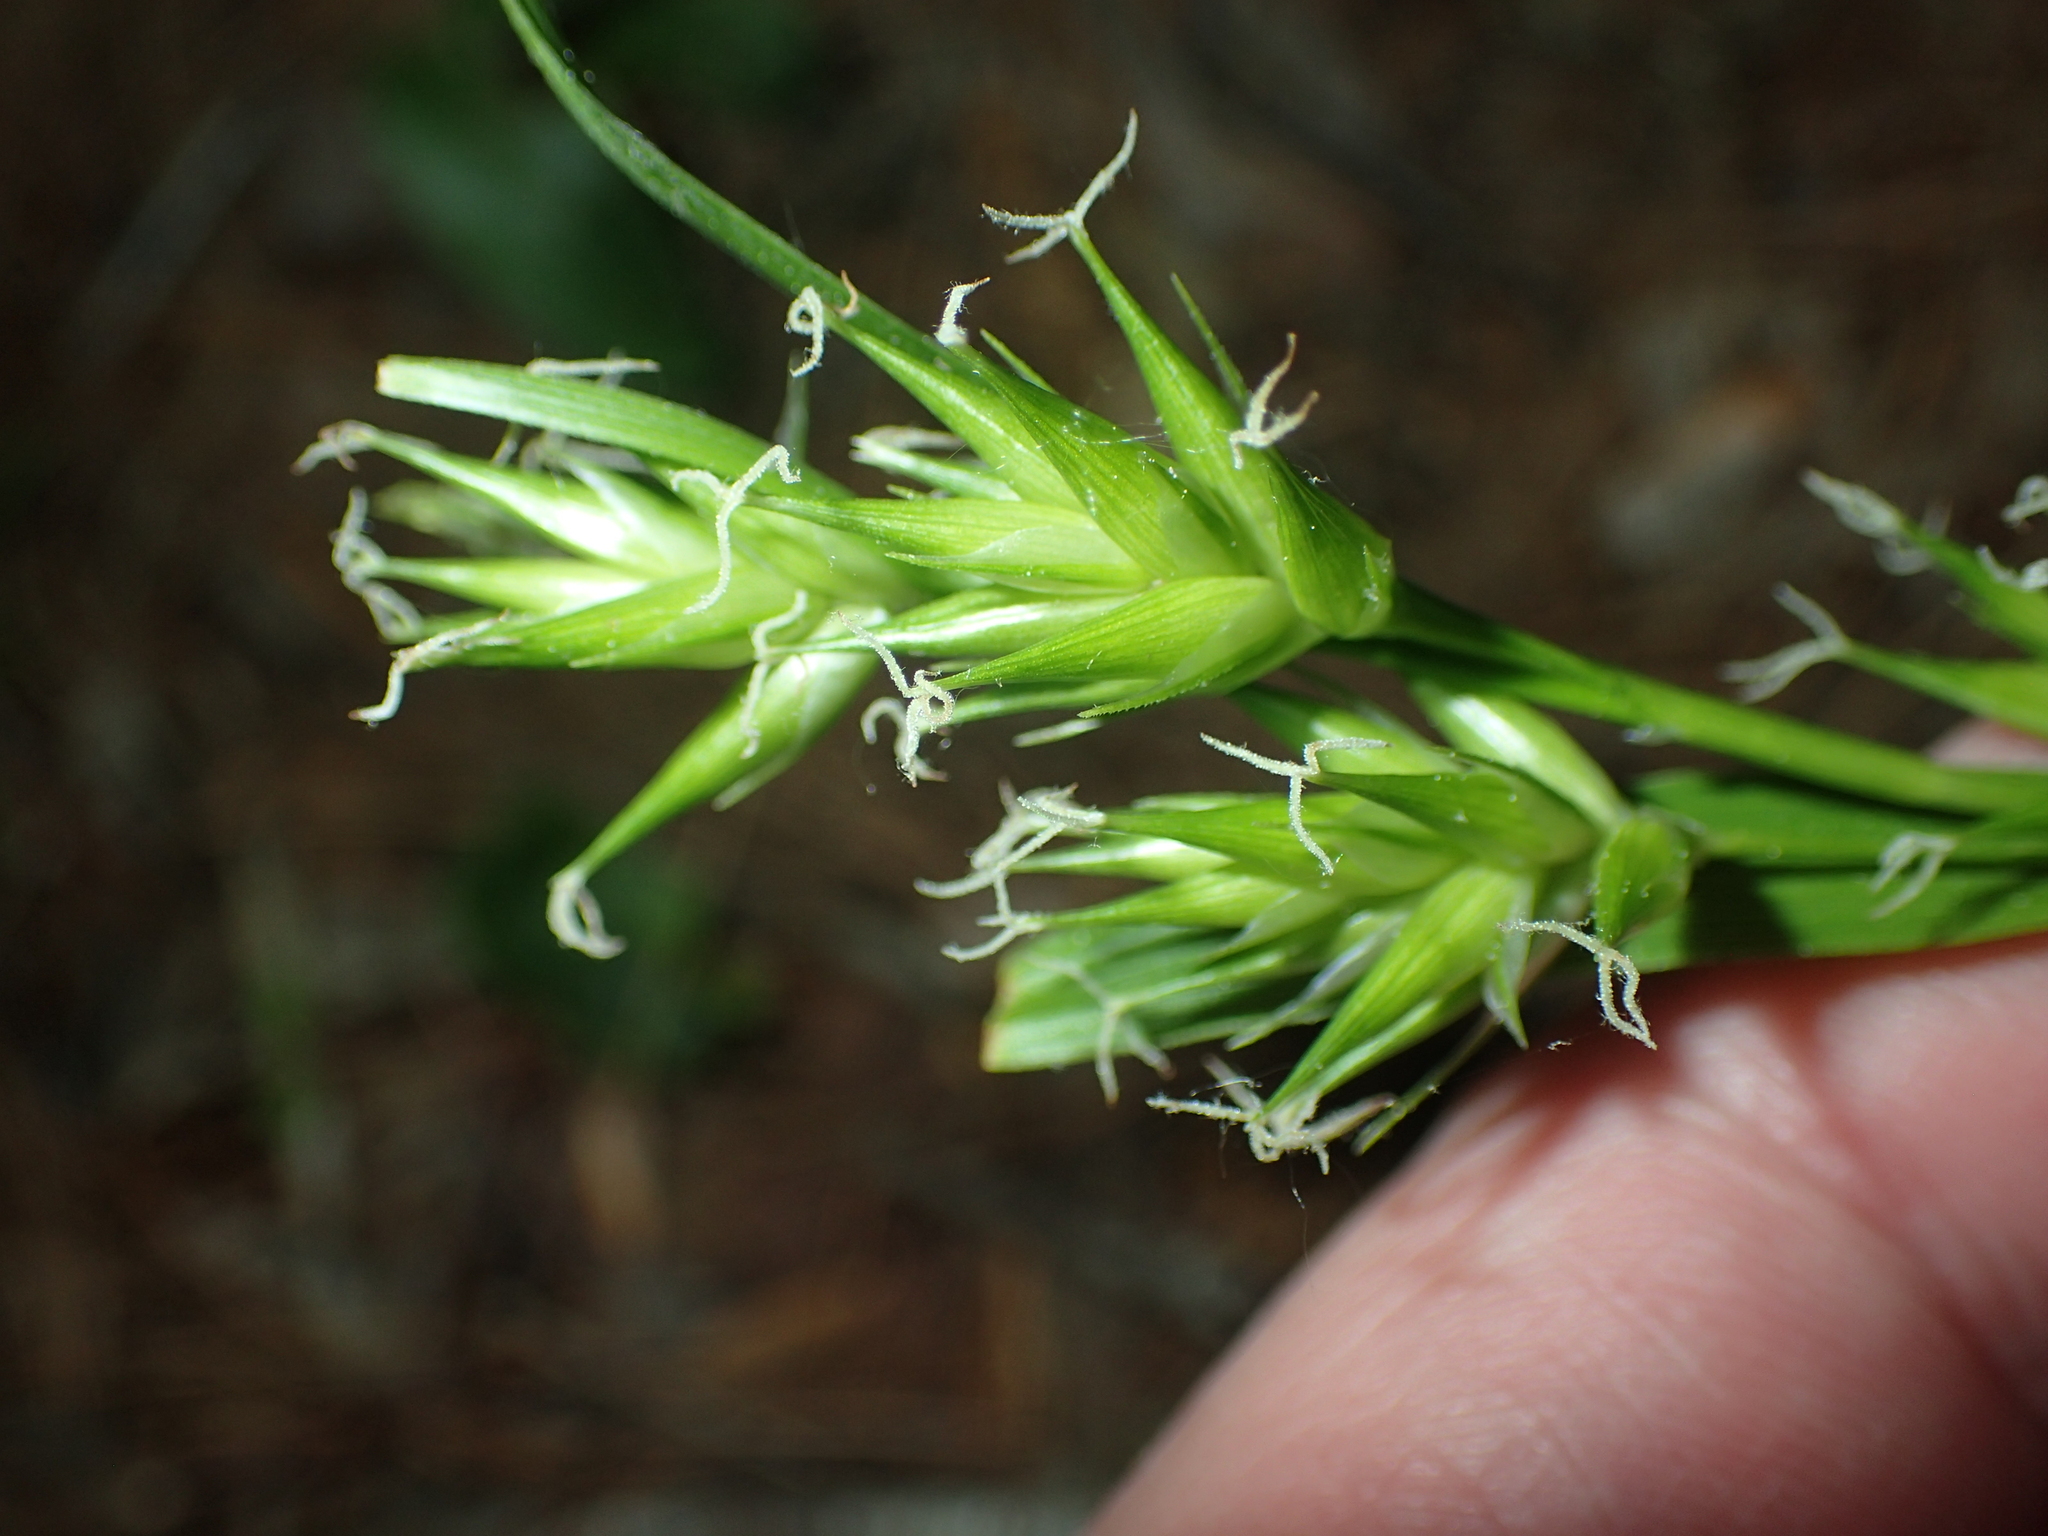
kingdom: Plantae
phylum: Tracheophyta
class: Liliopsida
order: Poales
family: Cyperaceae
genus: Carex
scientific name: Carex folliculata
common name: Northern long sedge
